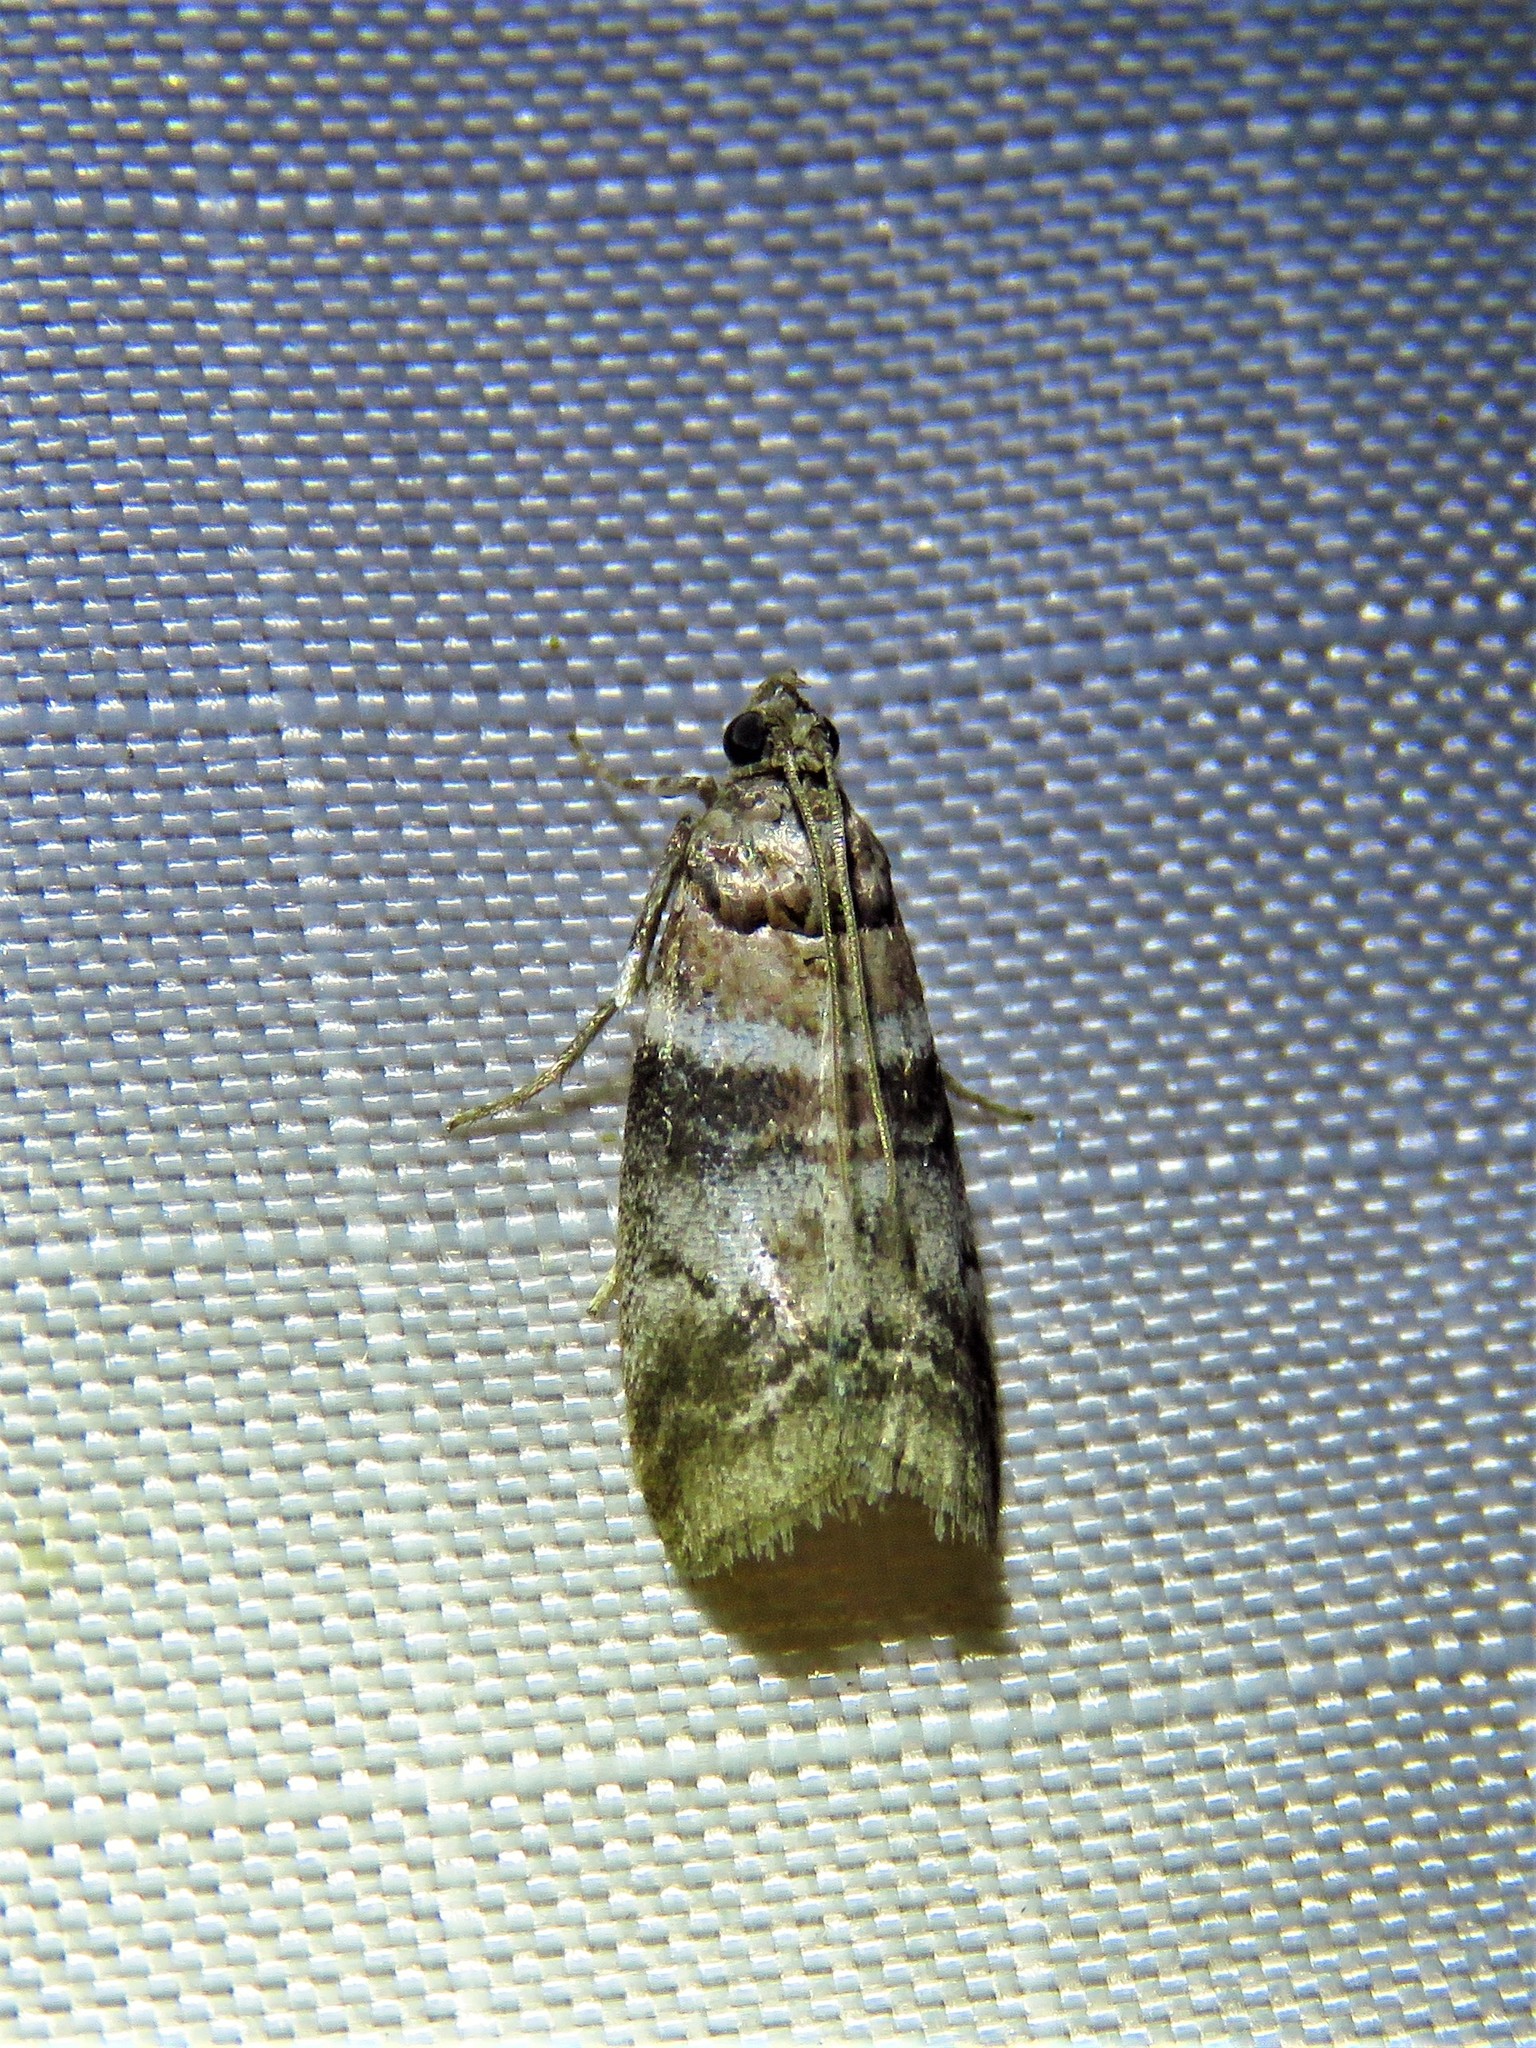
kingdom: Animalia
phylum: Arthropoda
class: Insecta
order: Lepidoptera
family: Pyralidae
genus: Sciota
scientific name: Sciota uvinella
